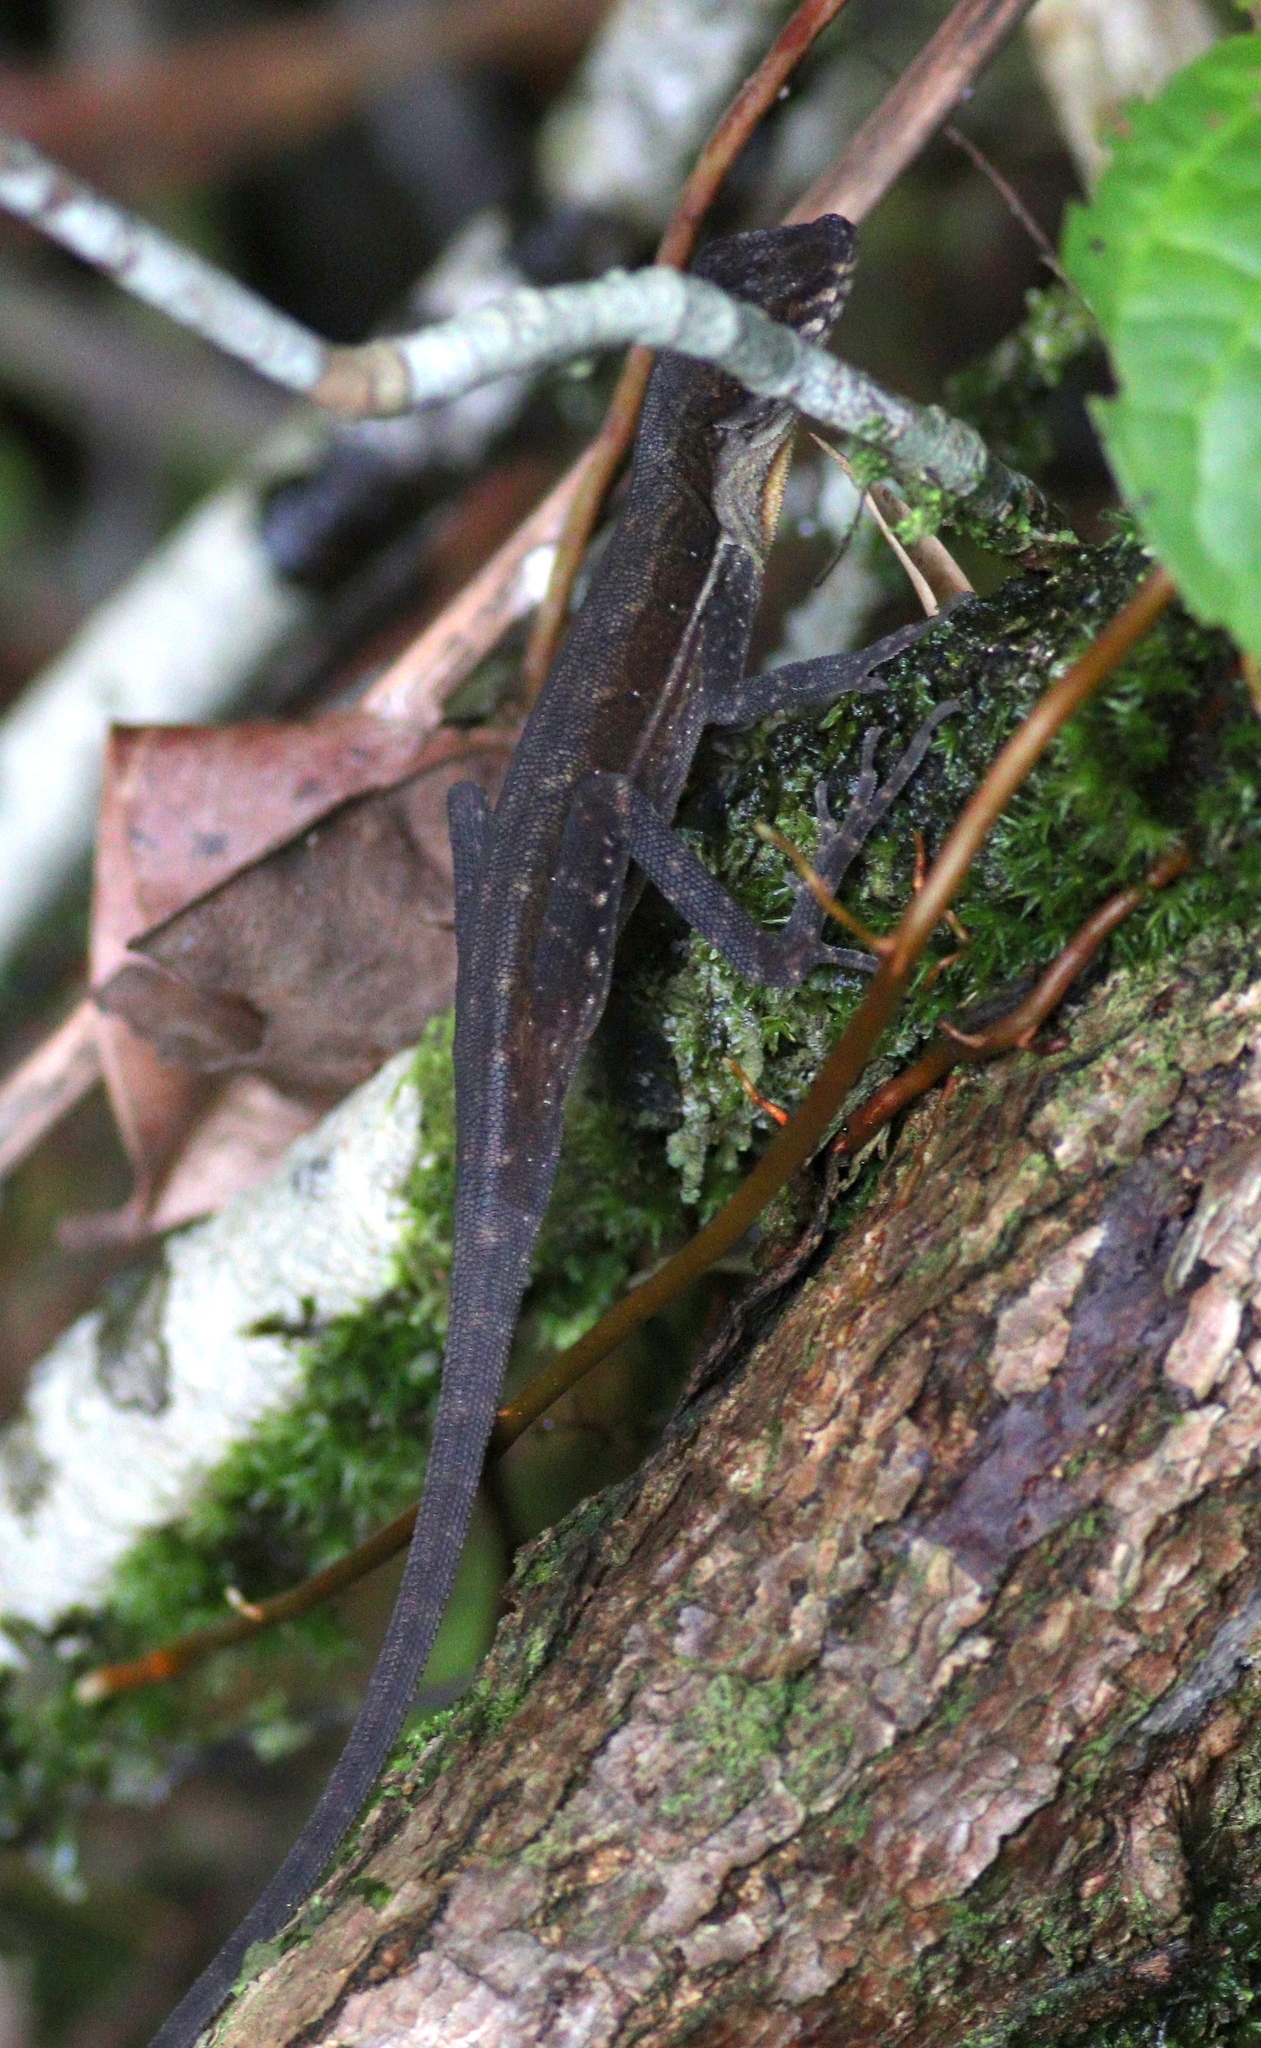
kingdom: Animalia
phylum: Chordata
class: Squamata
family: Dactyloidae
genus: Anolis
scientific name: Anolis oxylophus
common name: Stream anole
